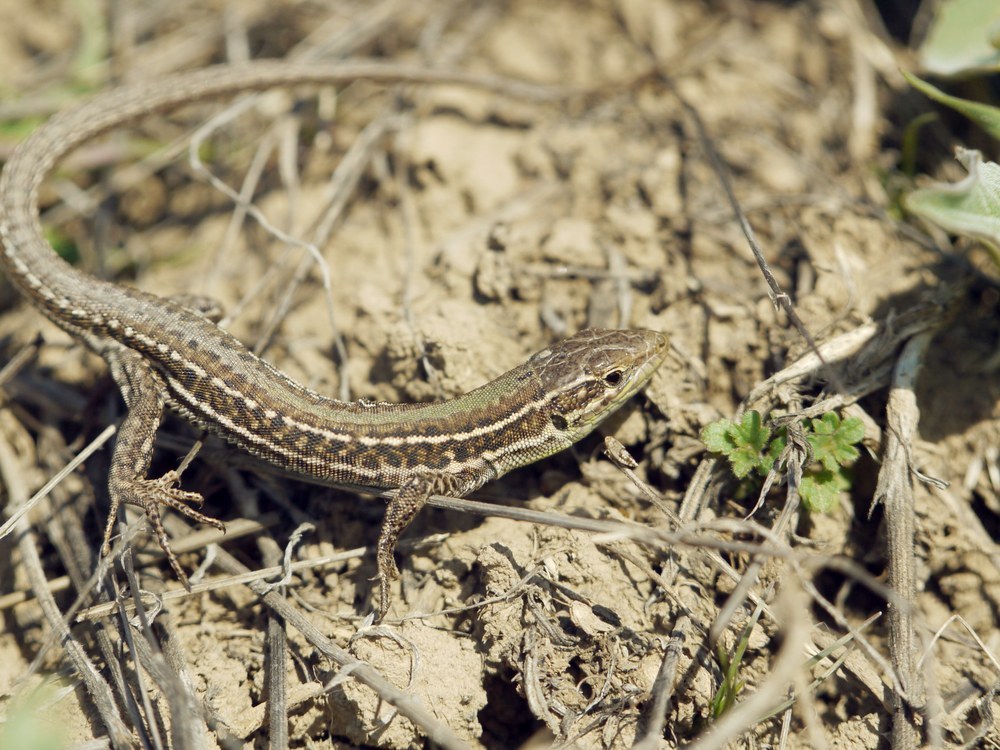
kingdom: Animalia
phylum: Chordata
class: Squamata
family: Lacertidae
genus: Podarcis
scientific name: Podarcis tauricus
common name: Balkan wall lizard
